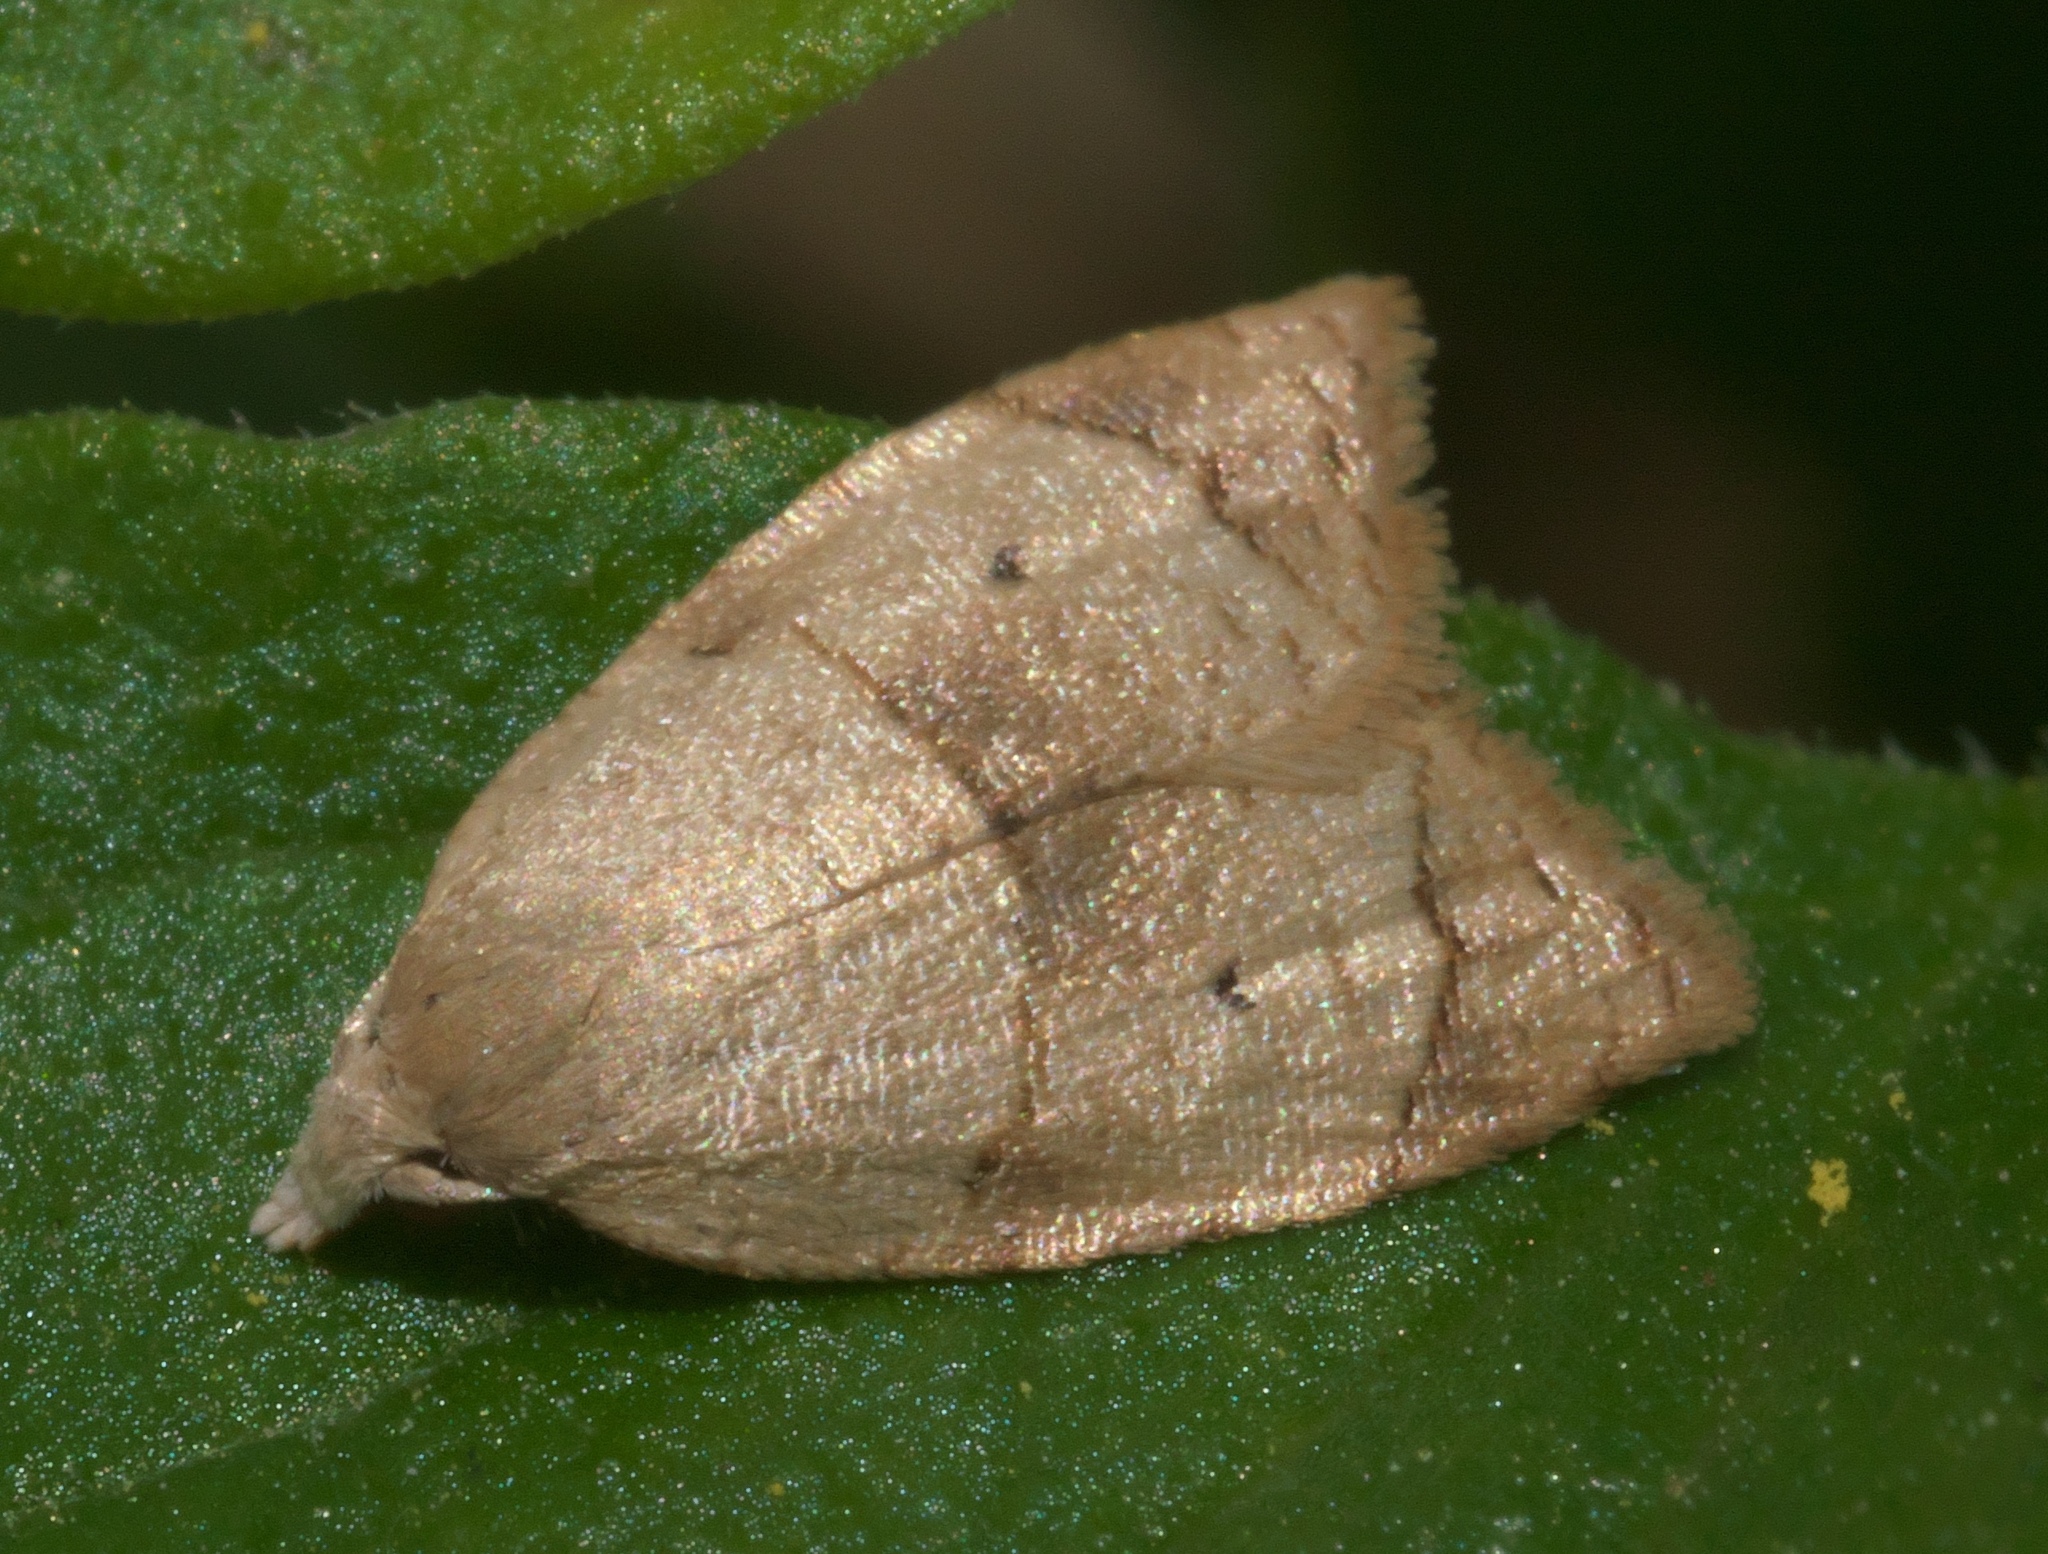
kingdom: Animalia
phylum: Arthropoda
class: Insecta
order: Lepidoptera
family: Tortricidae
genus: Coelostathma
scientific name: Coelostathma discopunctana
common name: Batman moth
